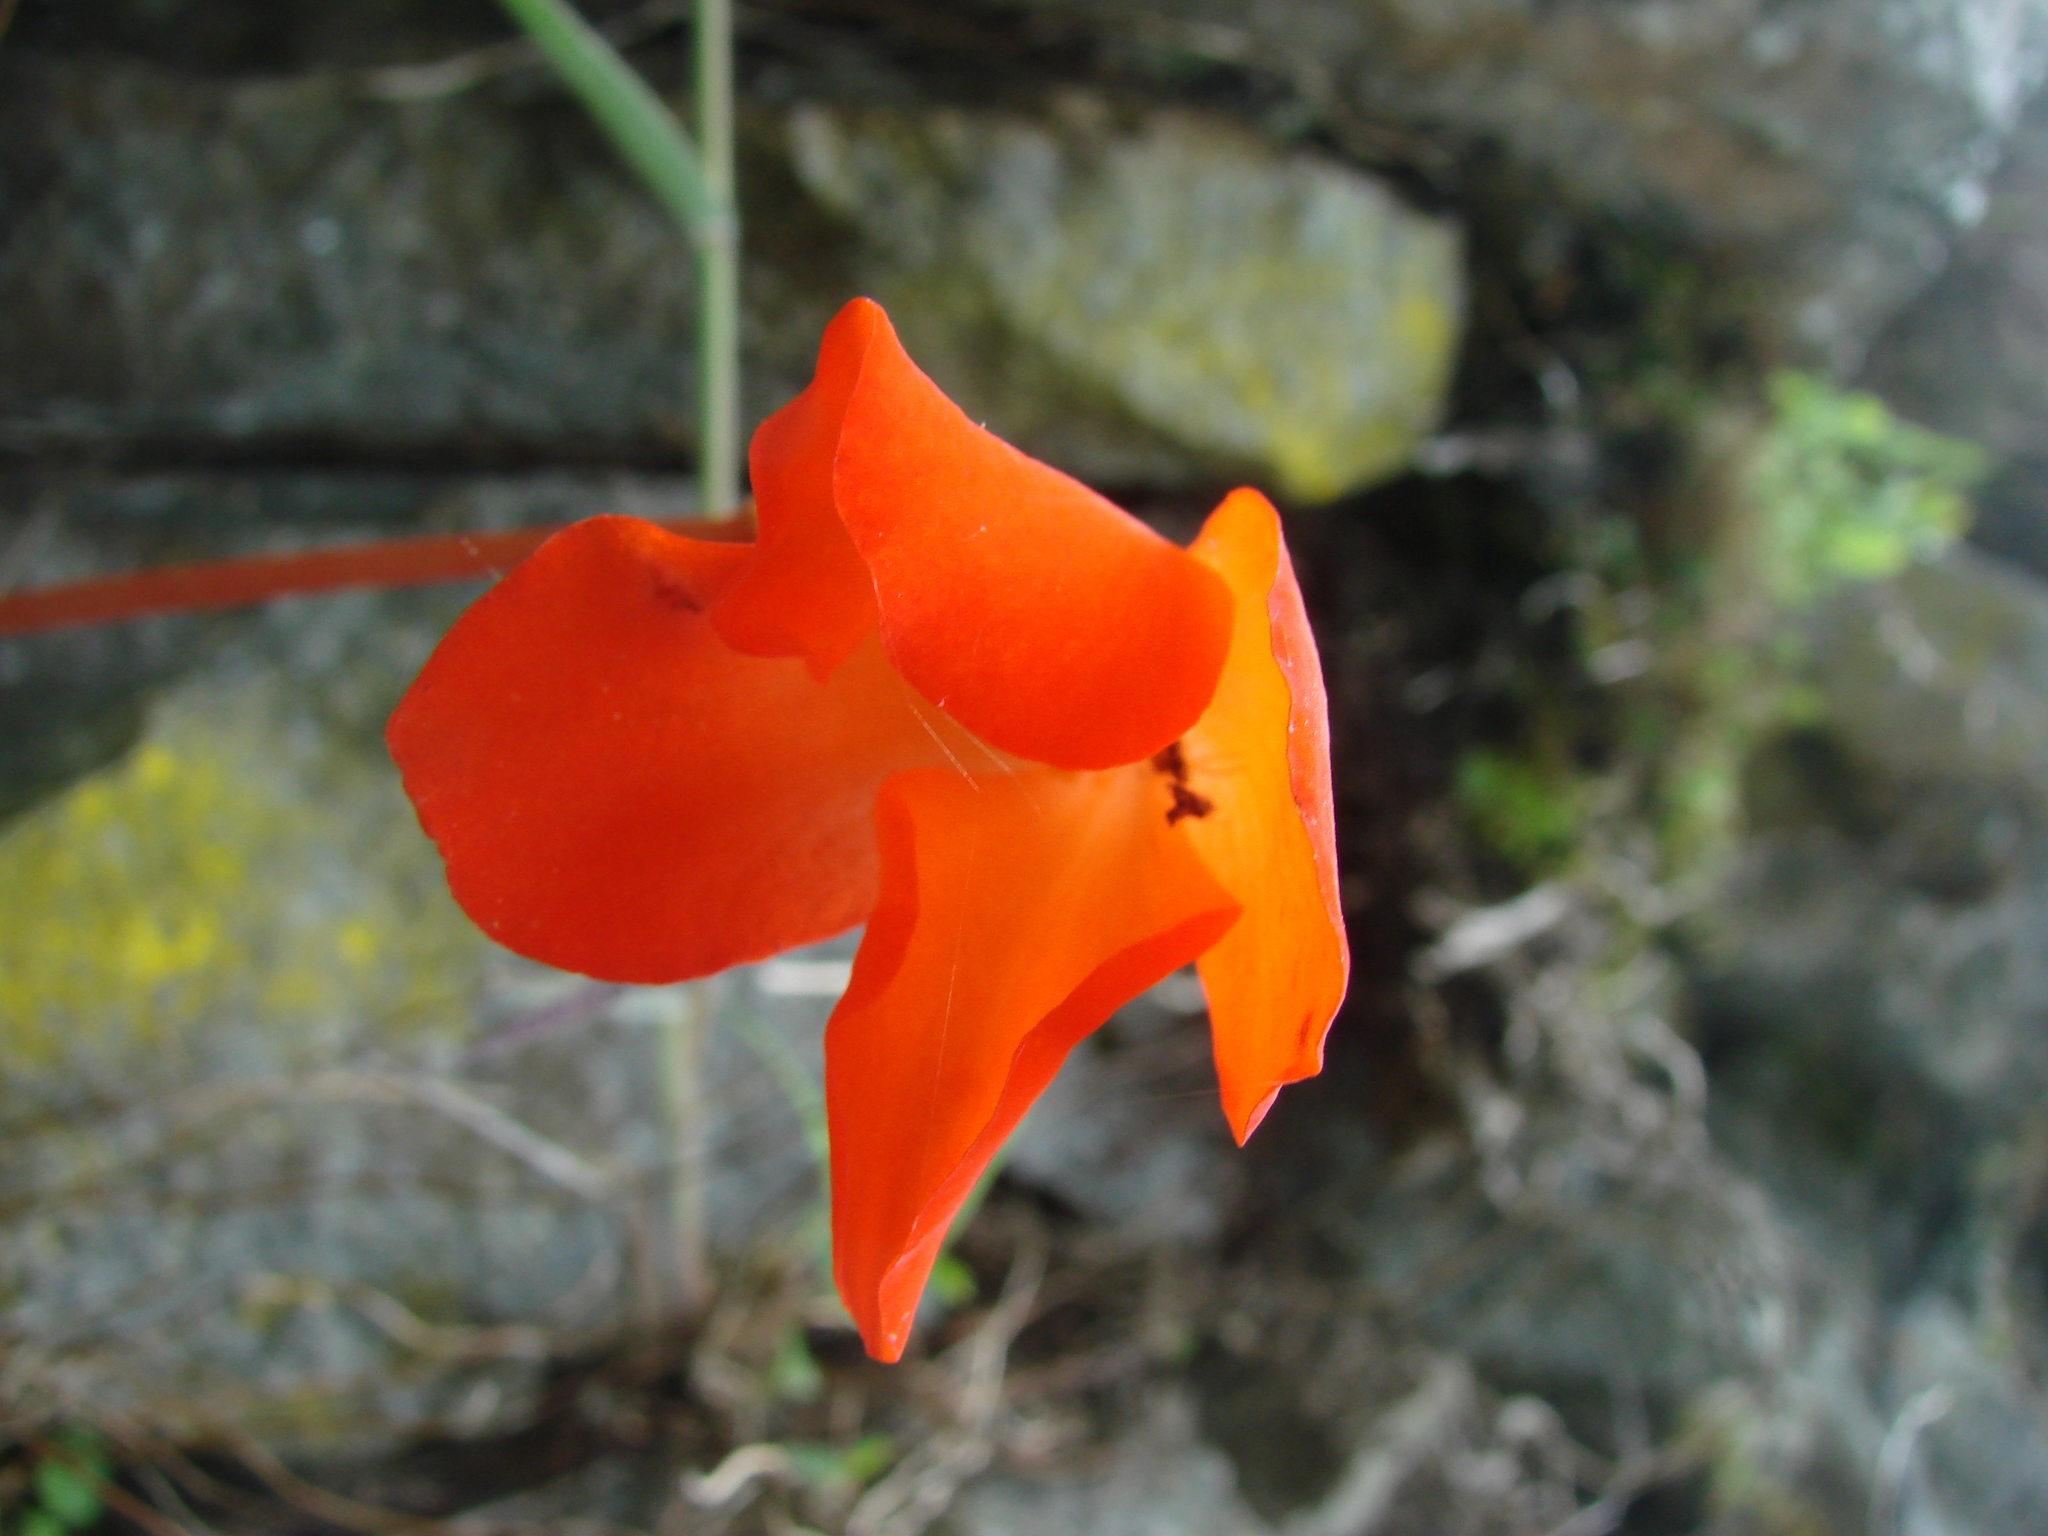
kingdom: Plantae
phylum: Tracheophyta
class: Magnoliopsida
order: Cucurbitales
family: Begoniaceae
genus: Begonia
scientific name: Begonia veitchii
